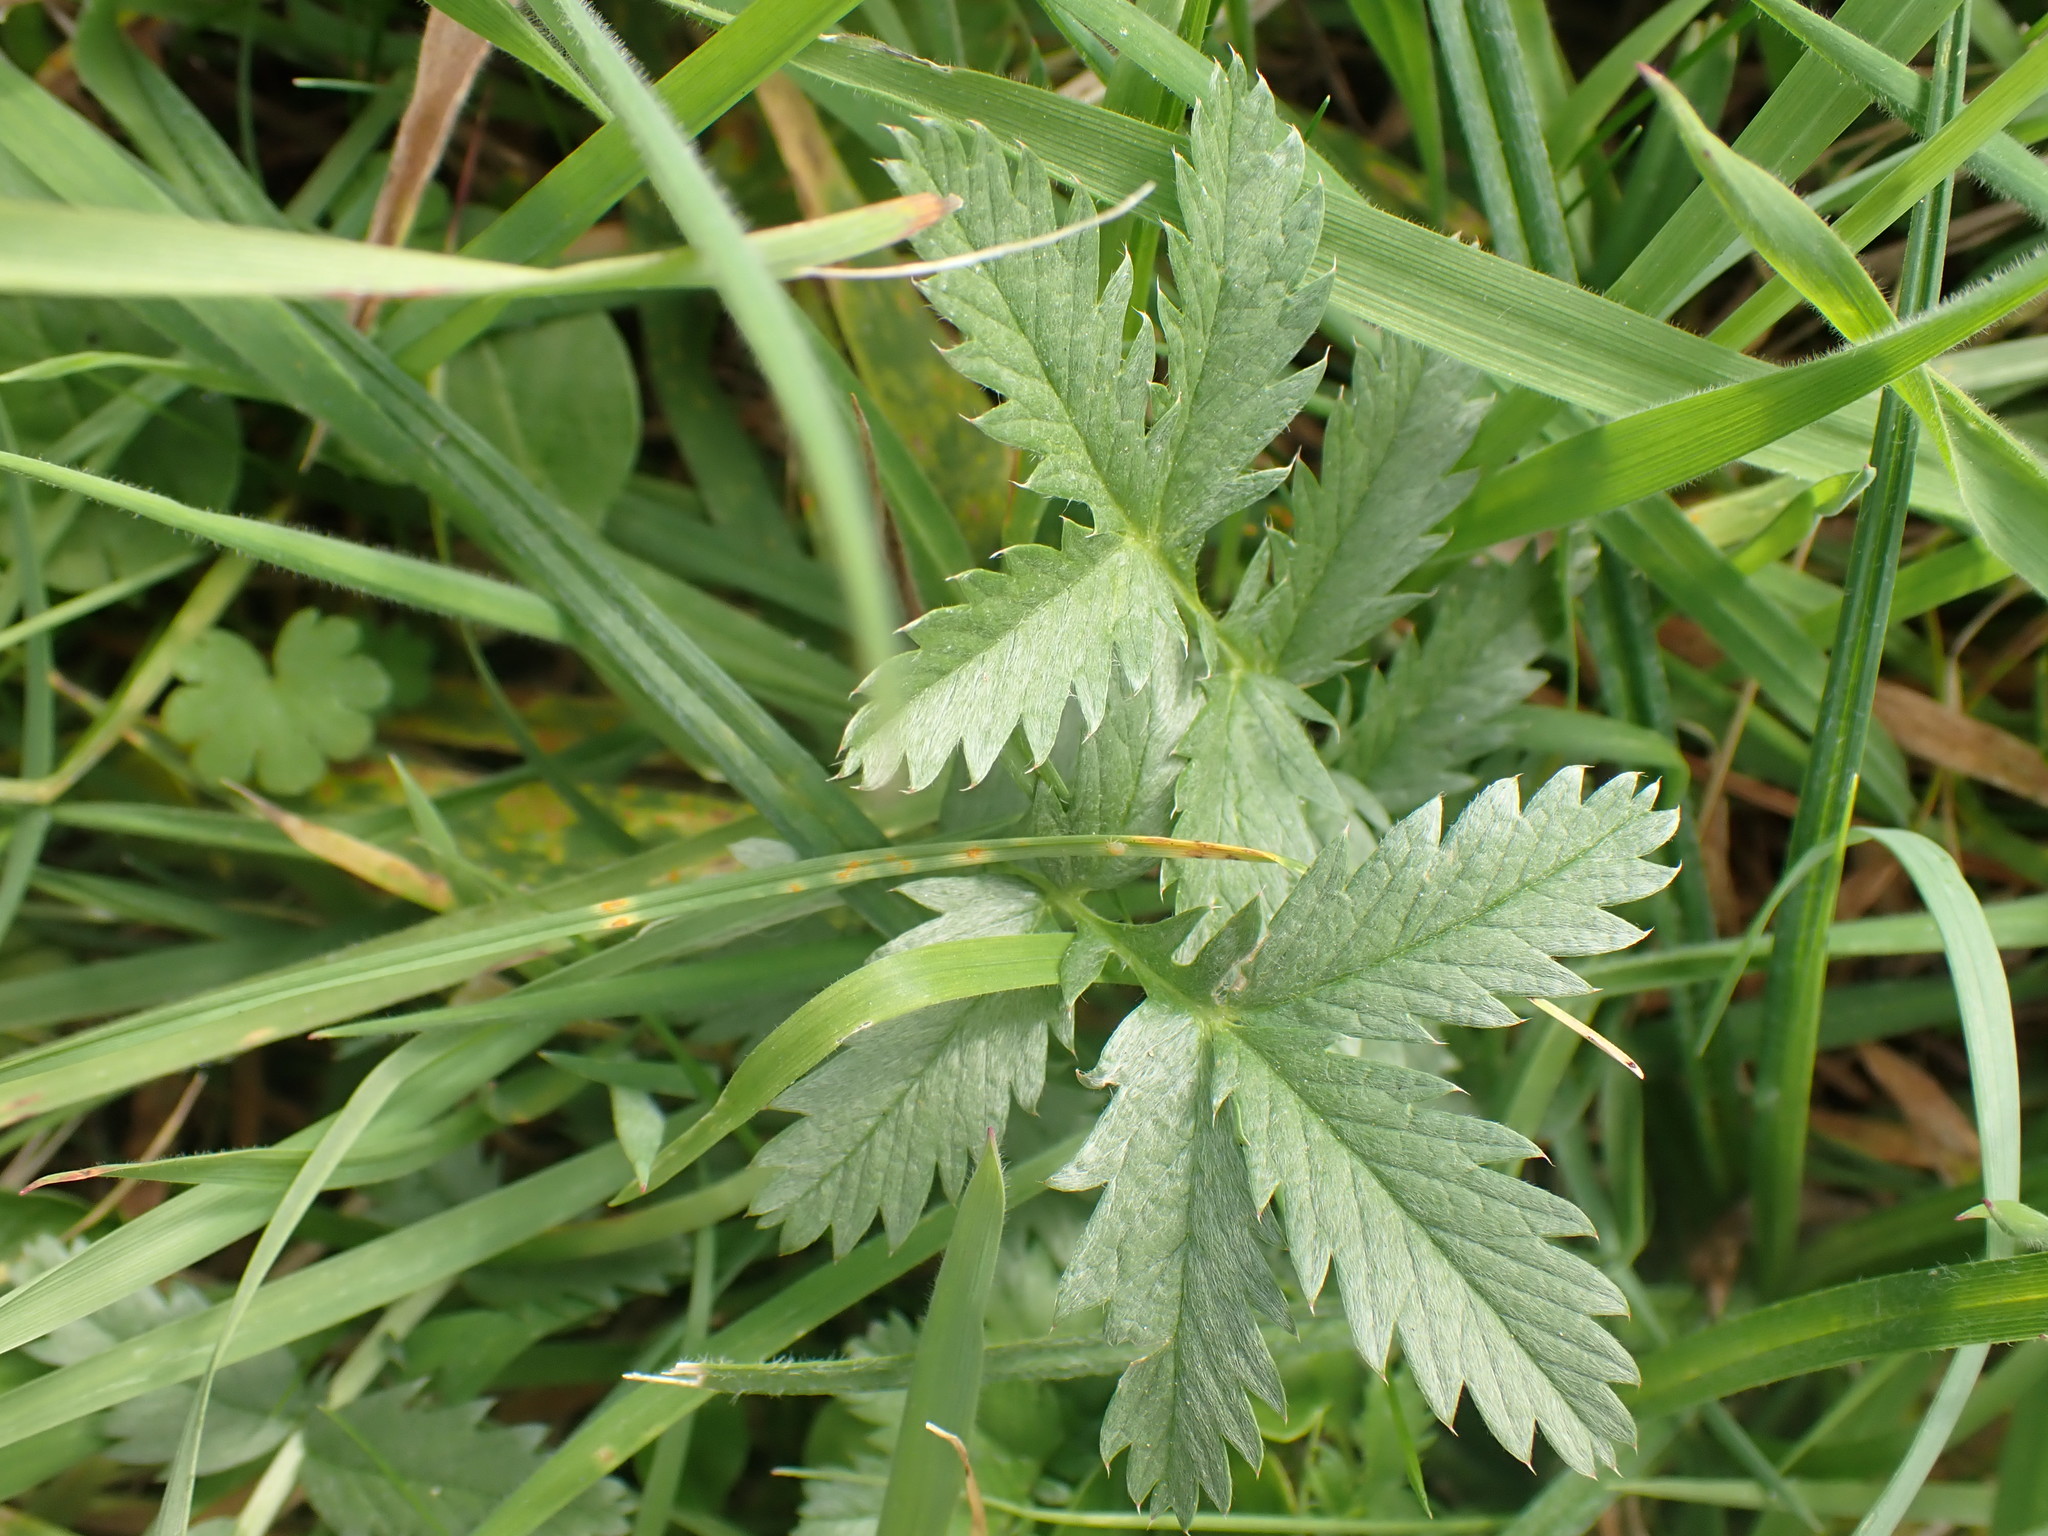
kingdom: Plantae
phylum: Tracheophyta
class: Magnoliopsida
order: Rosales
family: Rosaceae
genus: Argentina
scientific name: Argentina anserina
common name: Common silverweed
